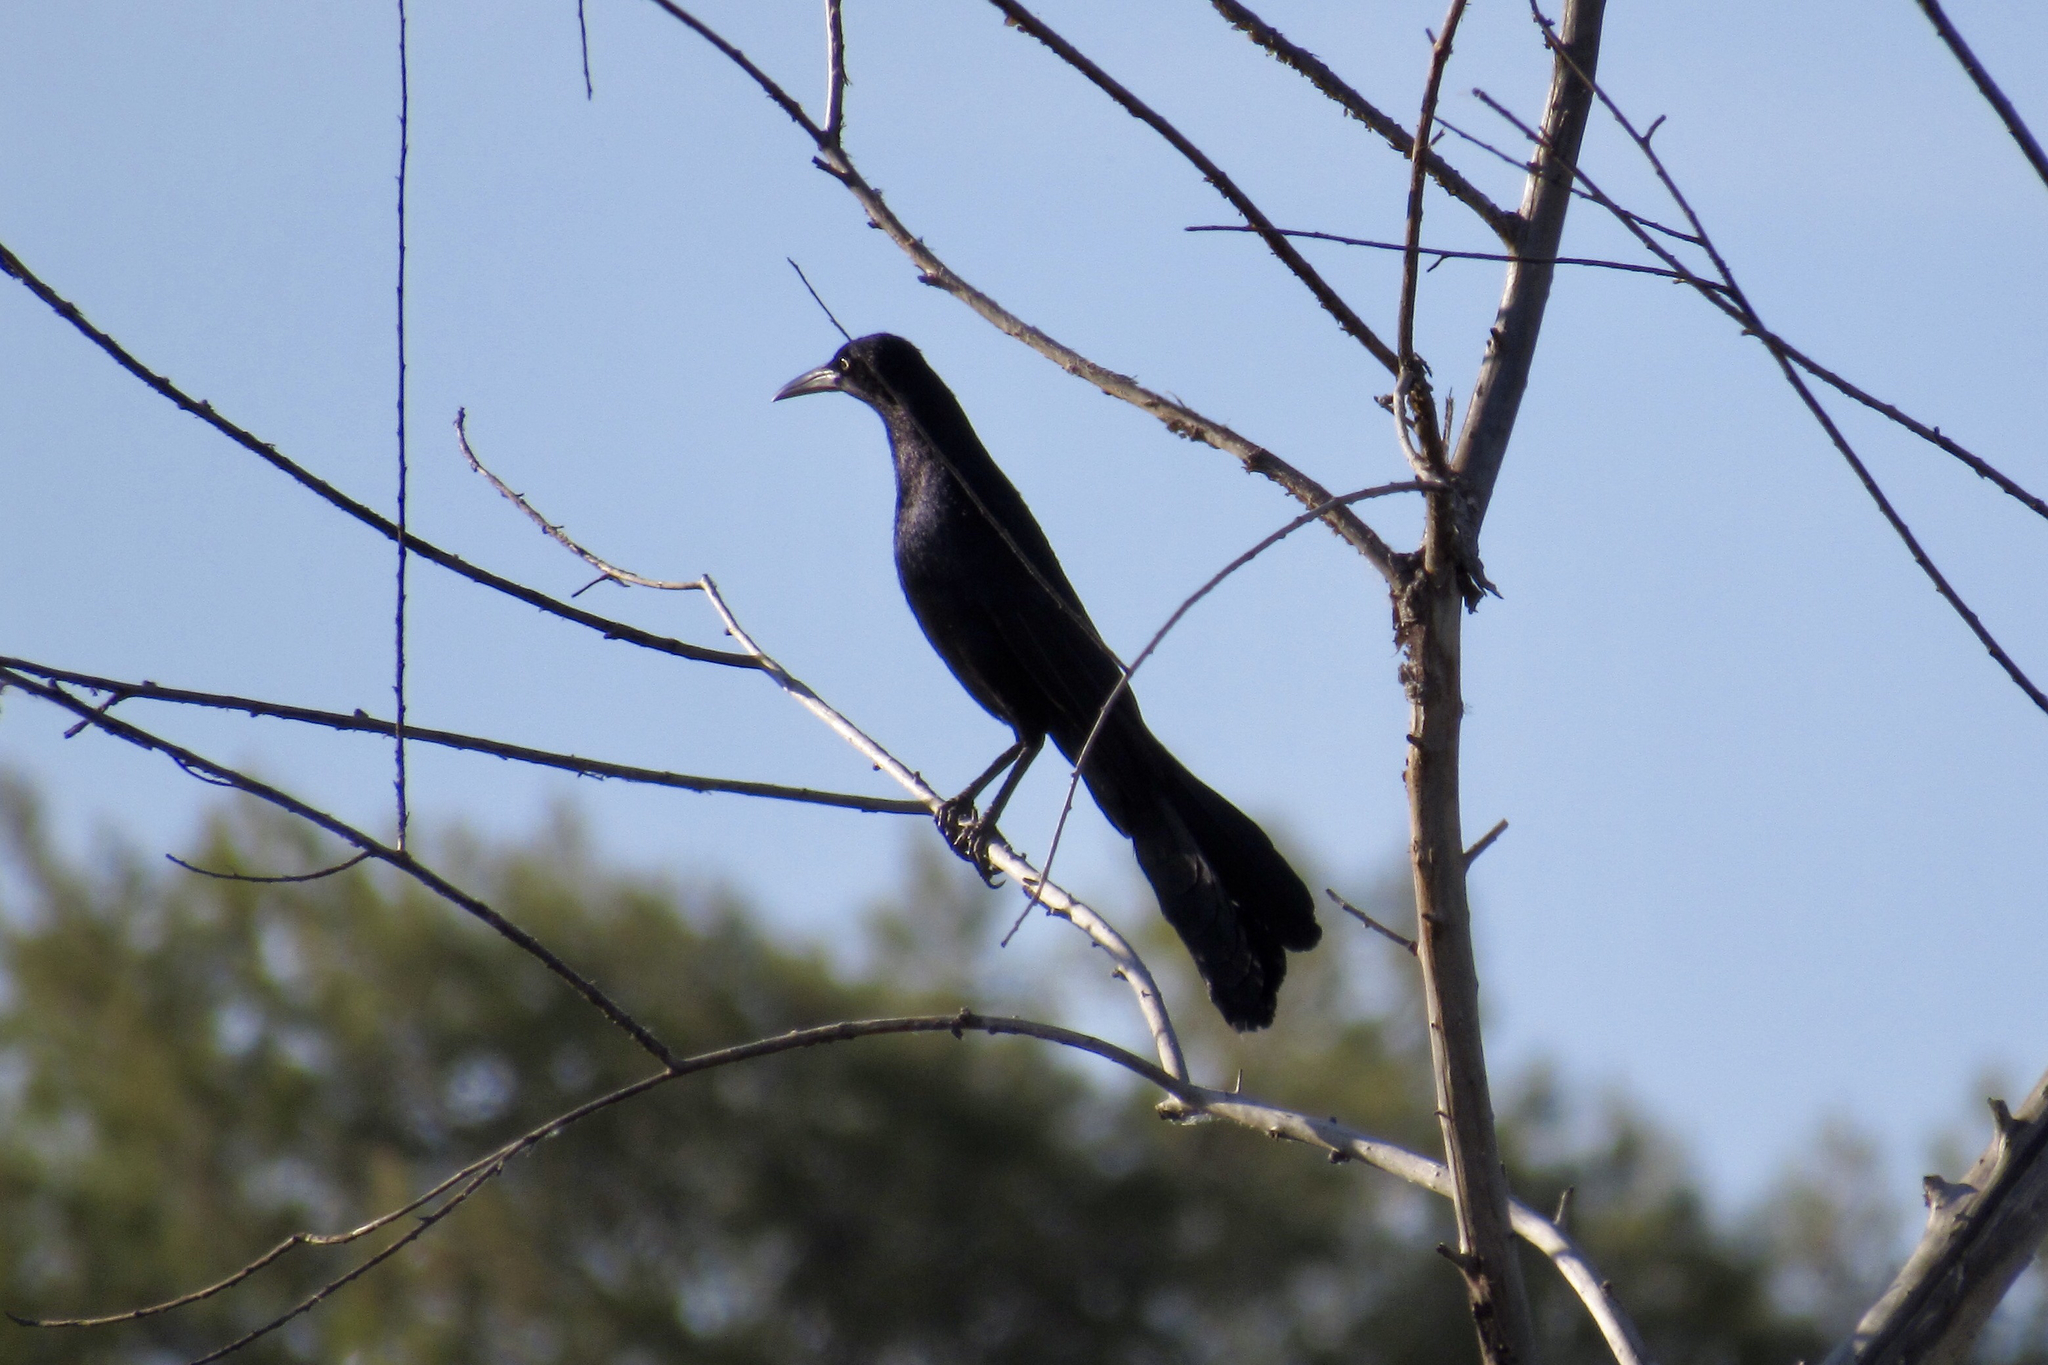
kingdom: Animalia
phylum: Chordata
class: Aves
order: Passeriformes
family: Icteridae
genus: Quiscalus
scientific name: Quiscalus mexicanus
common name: Great-tailed grackle
